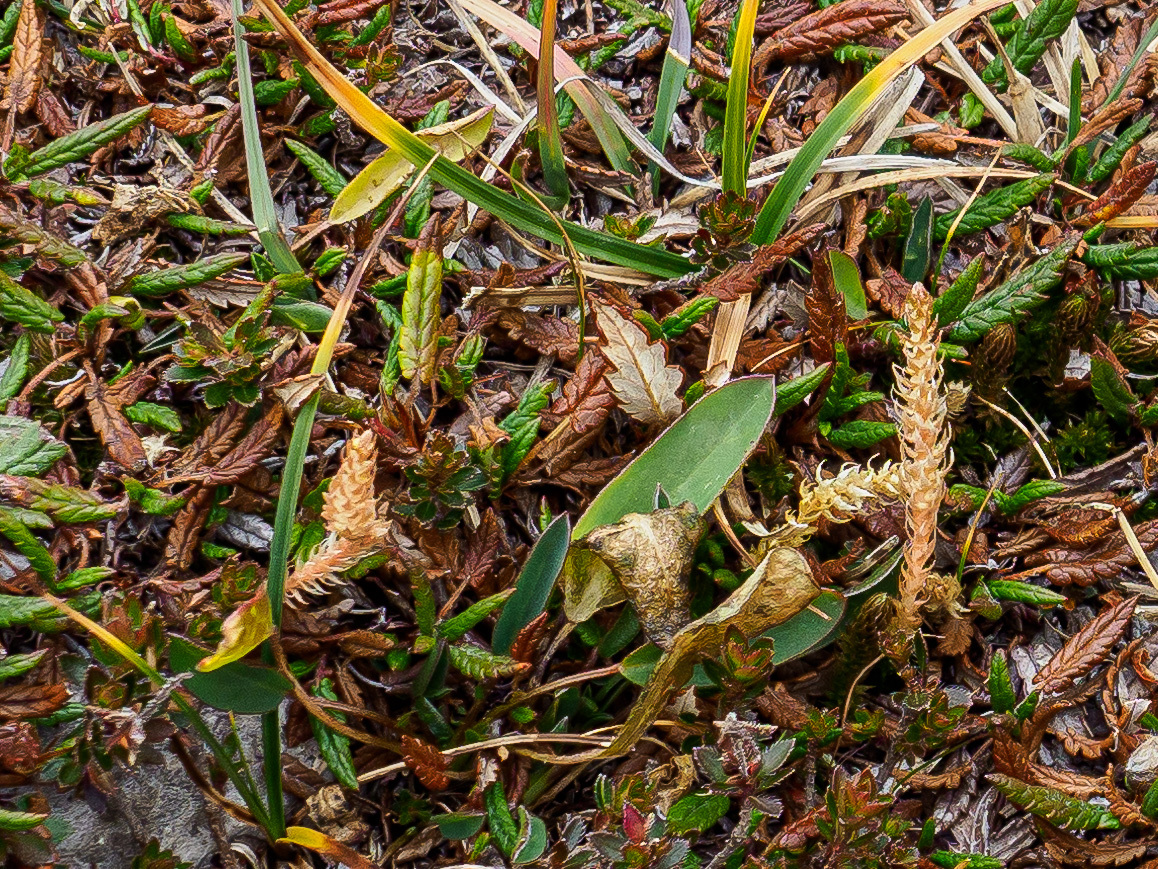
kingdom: Plantae
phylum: Tracheophyta
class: Lycopodiopsida
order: Selaginellales
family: Selaginellaceae
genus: Selaginella
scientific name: Selaginella selaginoides
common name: Prickly mountain-moss
